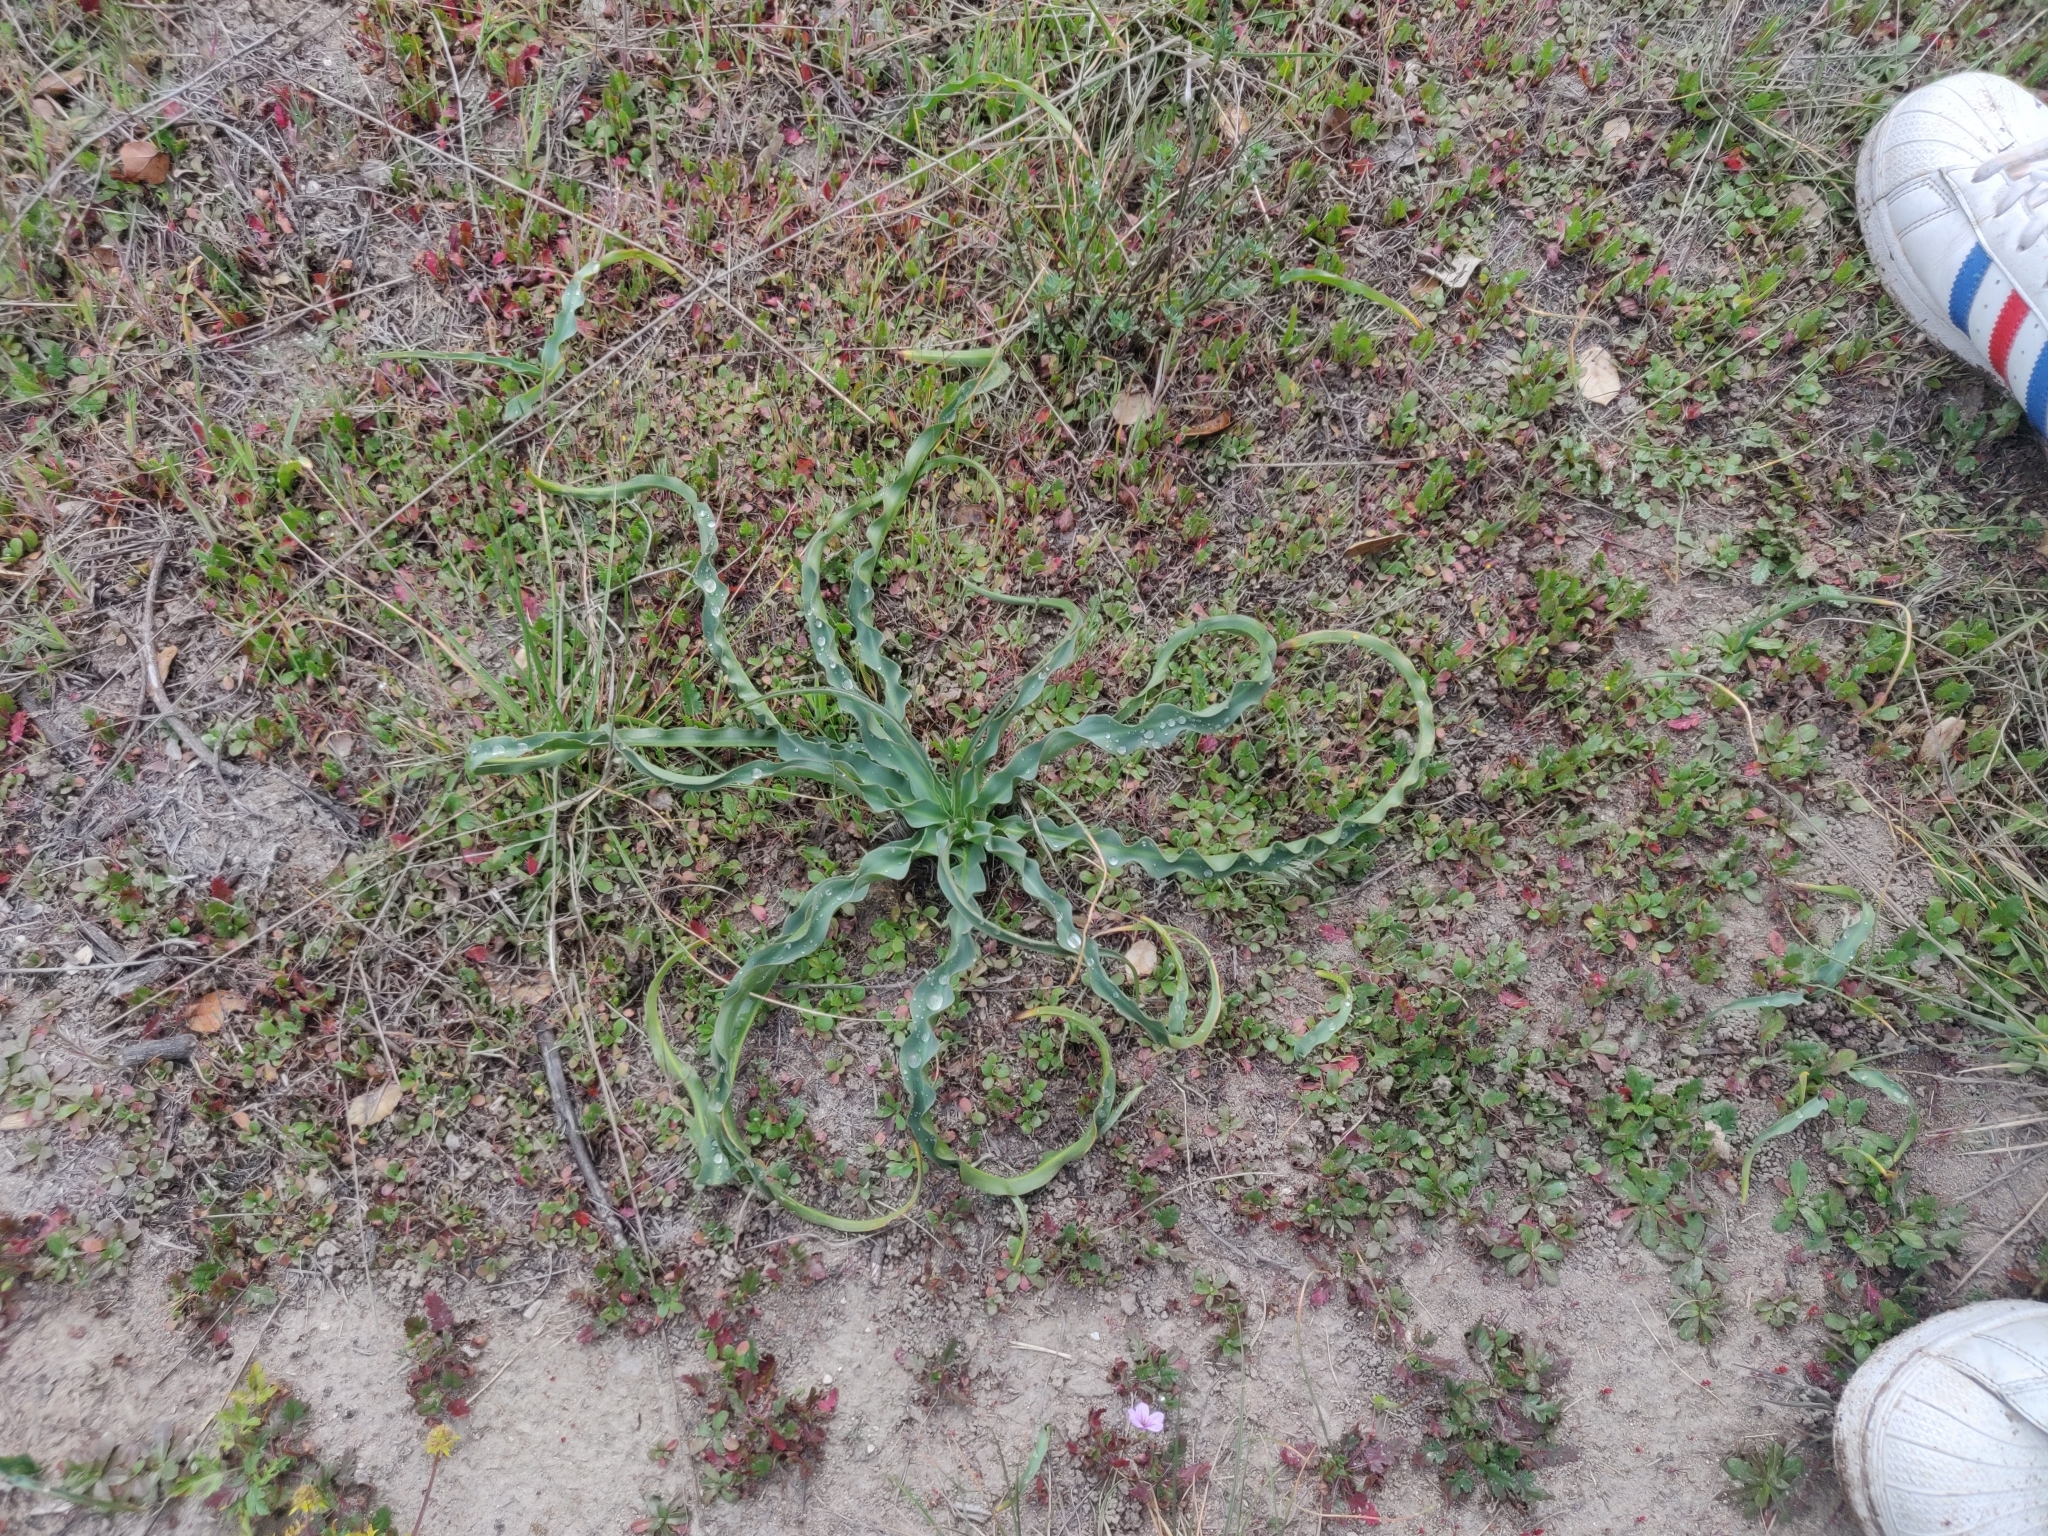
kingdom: Plantae
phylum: Tracheophyta
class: Liliopsida
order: Asparagales
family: Asparagaceae
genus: Chlorogalum
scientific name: Chlorogalum pomeridianum
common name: Amole
